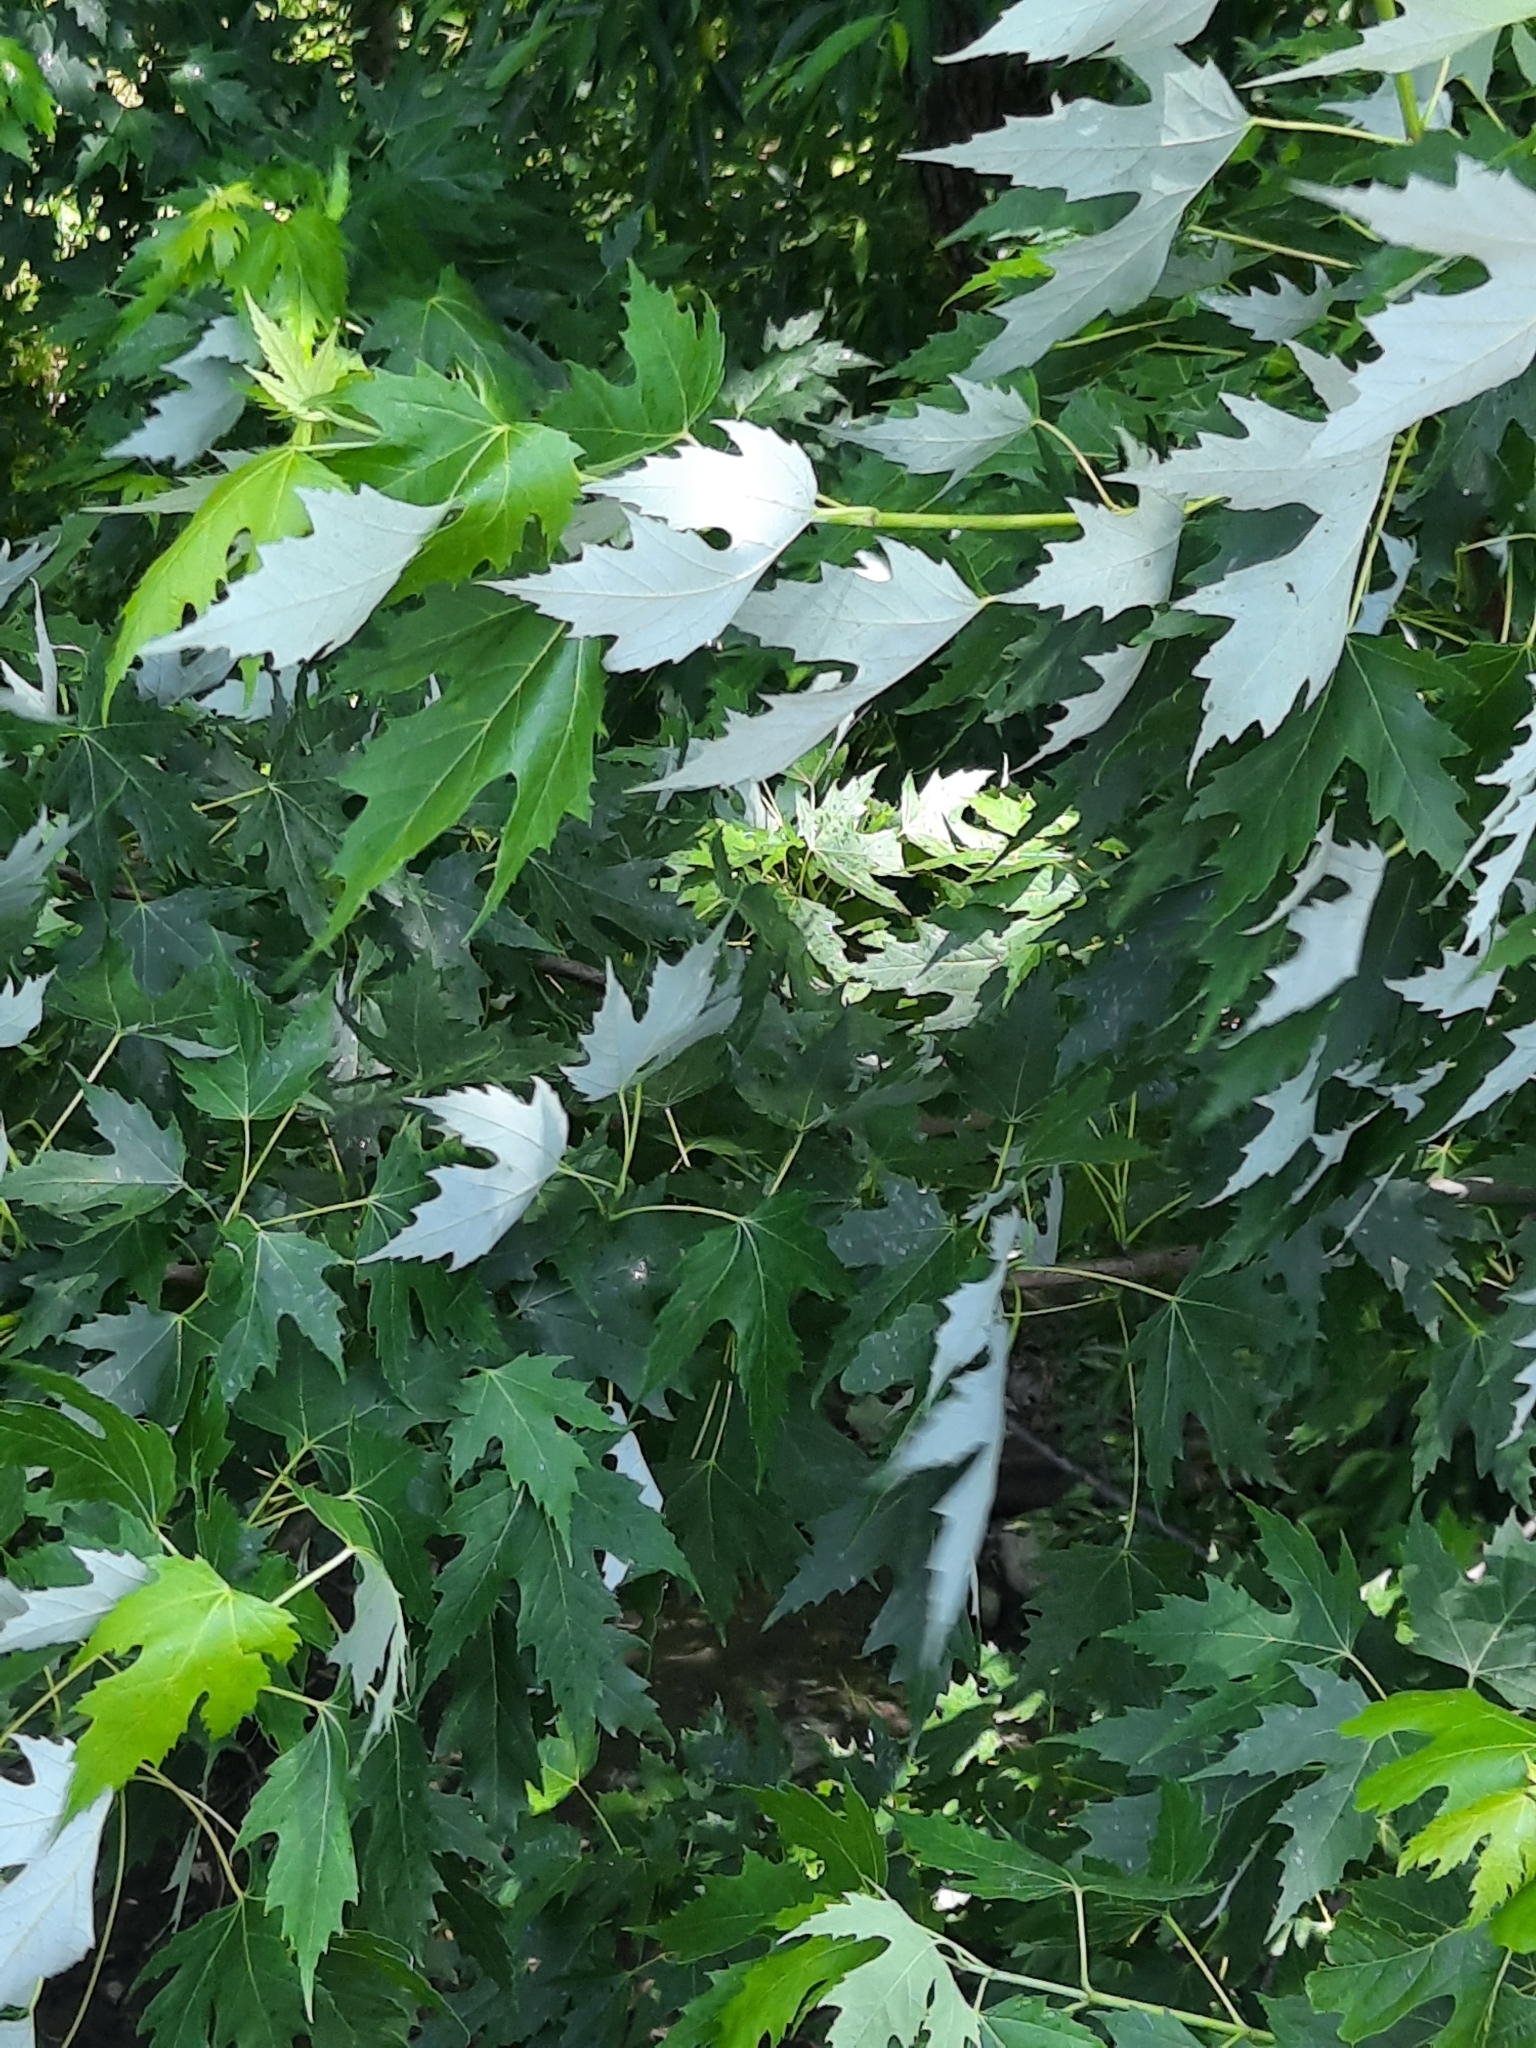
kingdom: Plantae
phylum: Tracheophyta
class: Magnoliopsida
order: Sapindales
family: Sapindaceae
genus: Acer
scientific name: Acer saccharinum
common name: Silver maple
